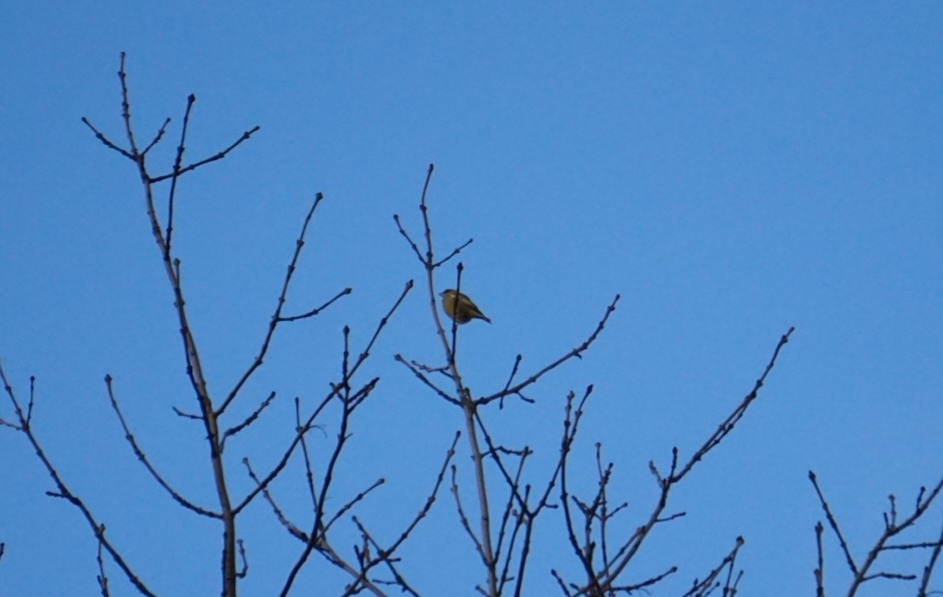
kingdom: Plantae
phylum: Tracheophyta
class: Liliopsida
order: Poales
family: Poaceae
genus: Chloris
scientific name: Chloris chloris
